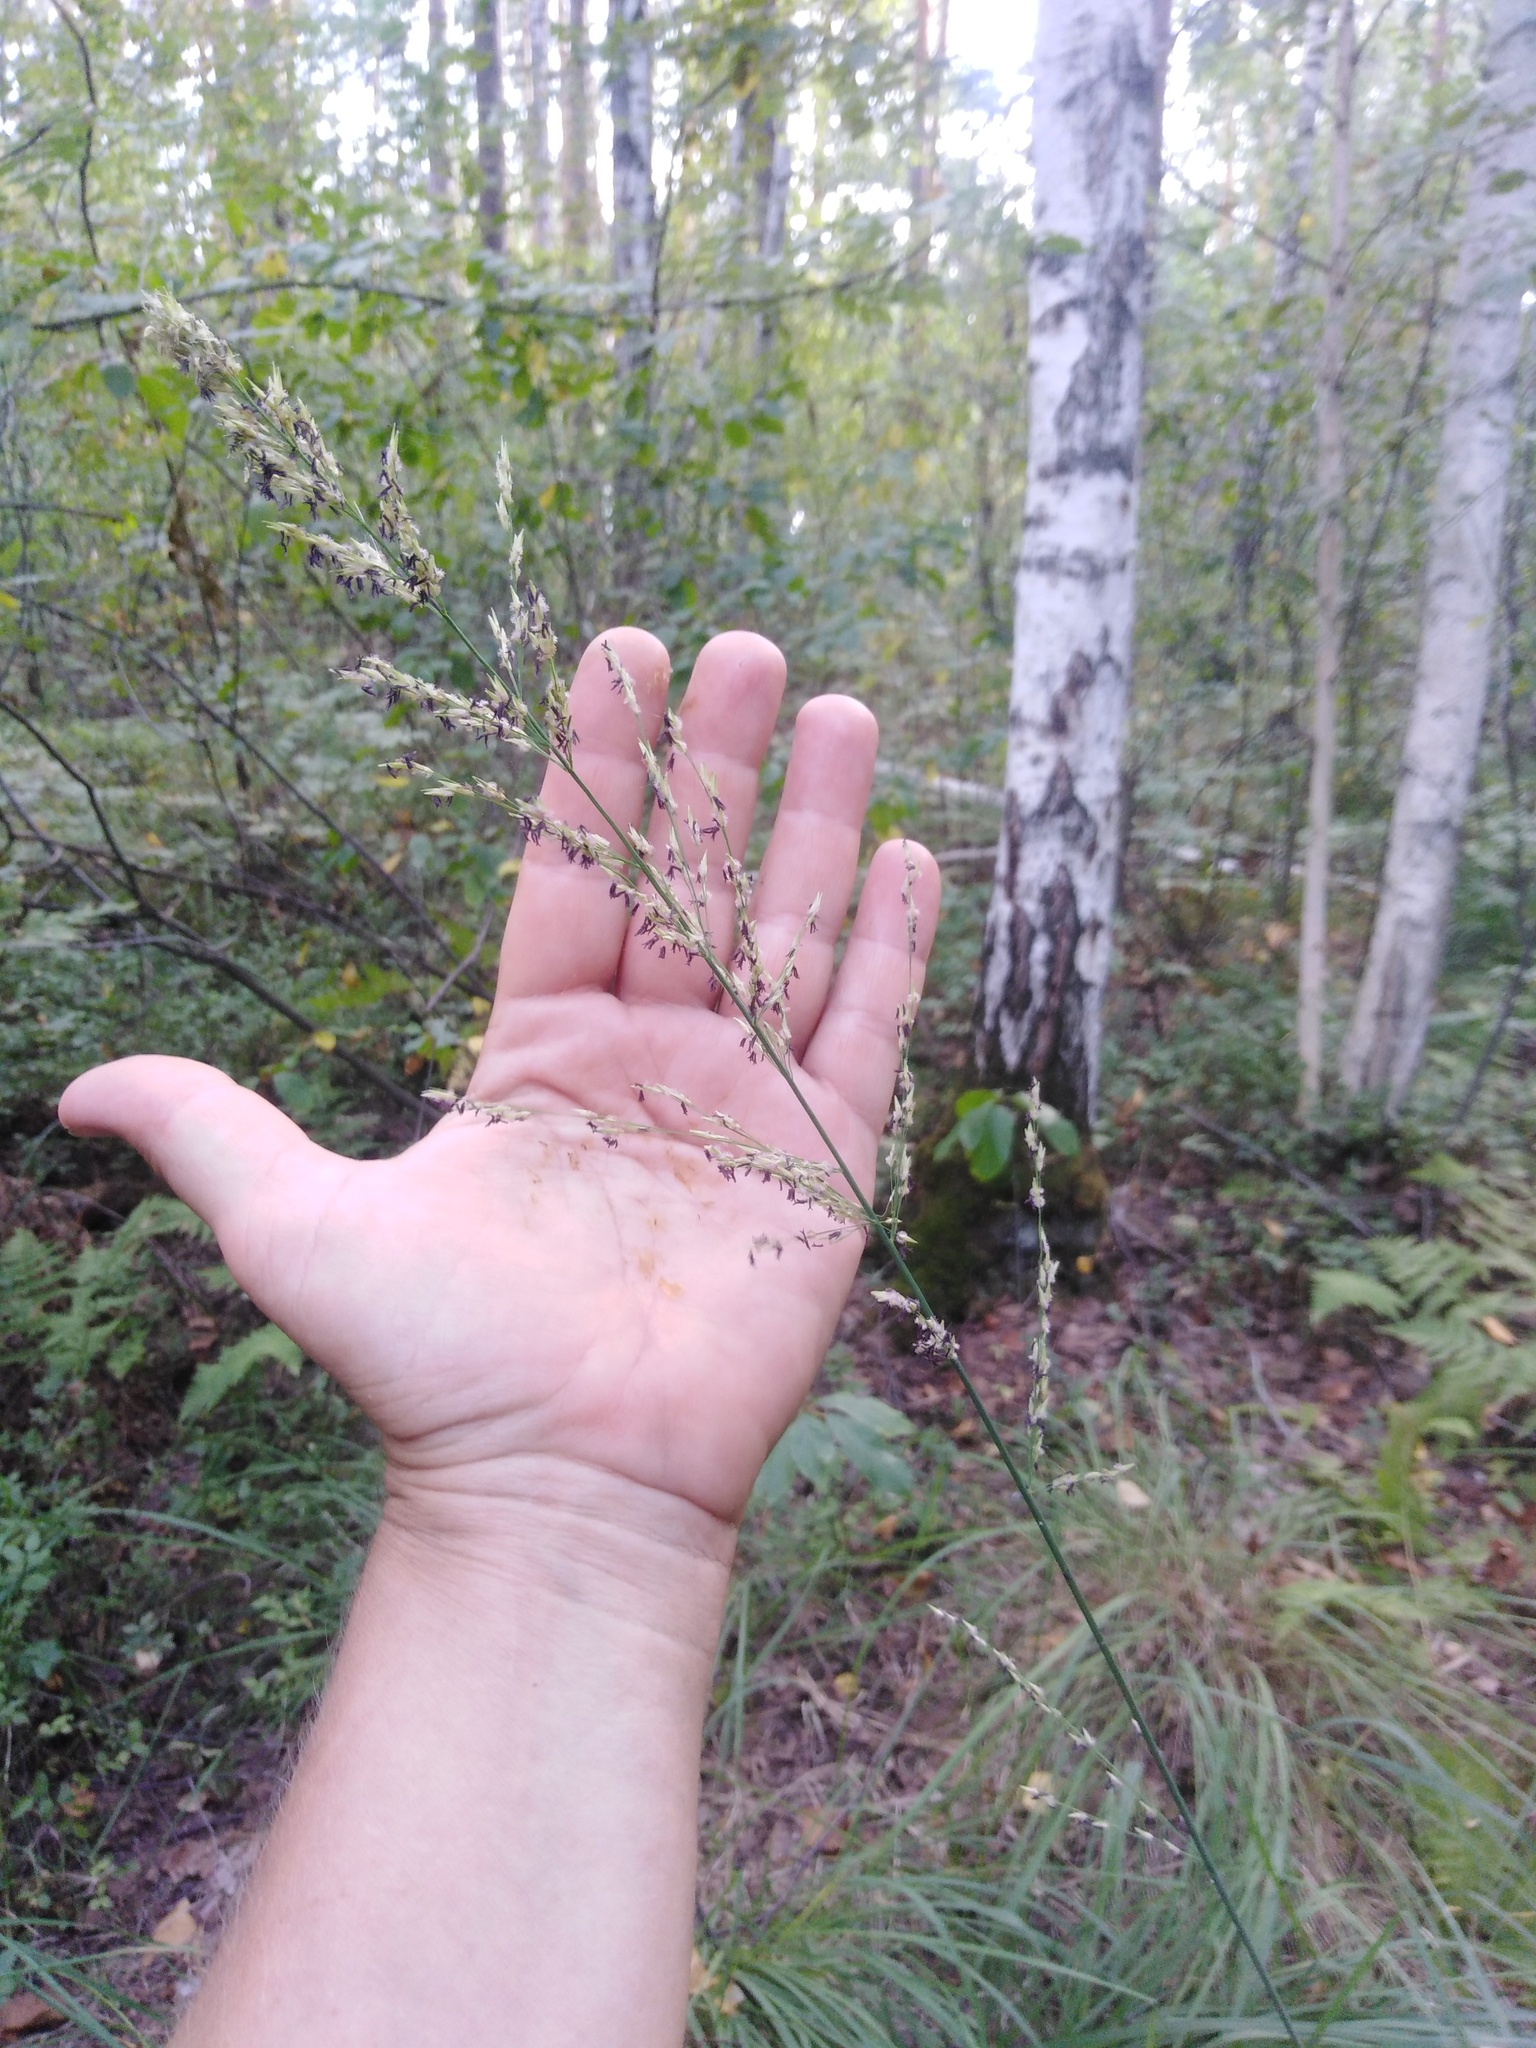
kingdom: Plantae
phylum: Tracheophyta
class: Liliopsida
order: Poales
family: Poaceae
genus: Molinia
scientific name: Molinia caerulea
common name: Purple moor-grass
